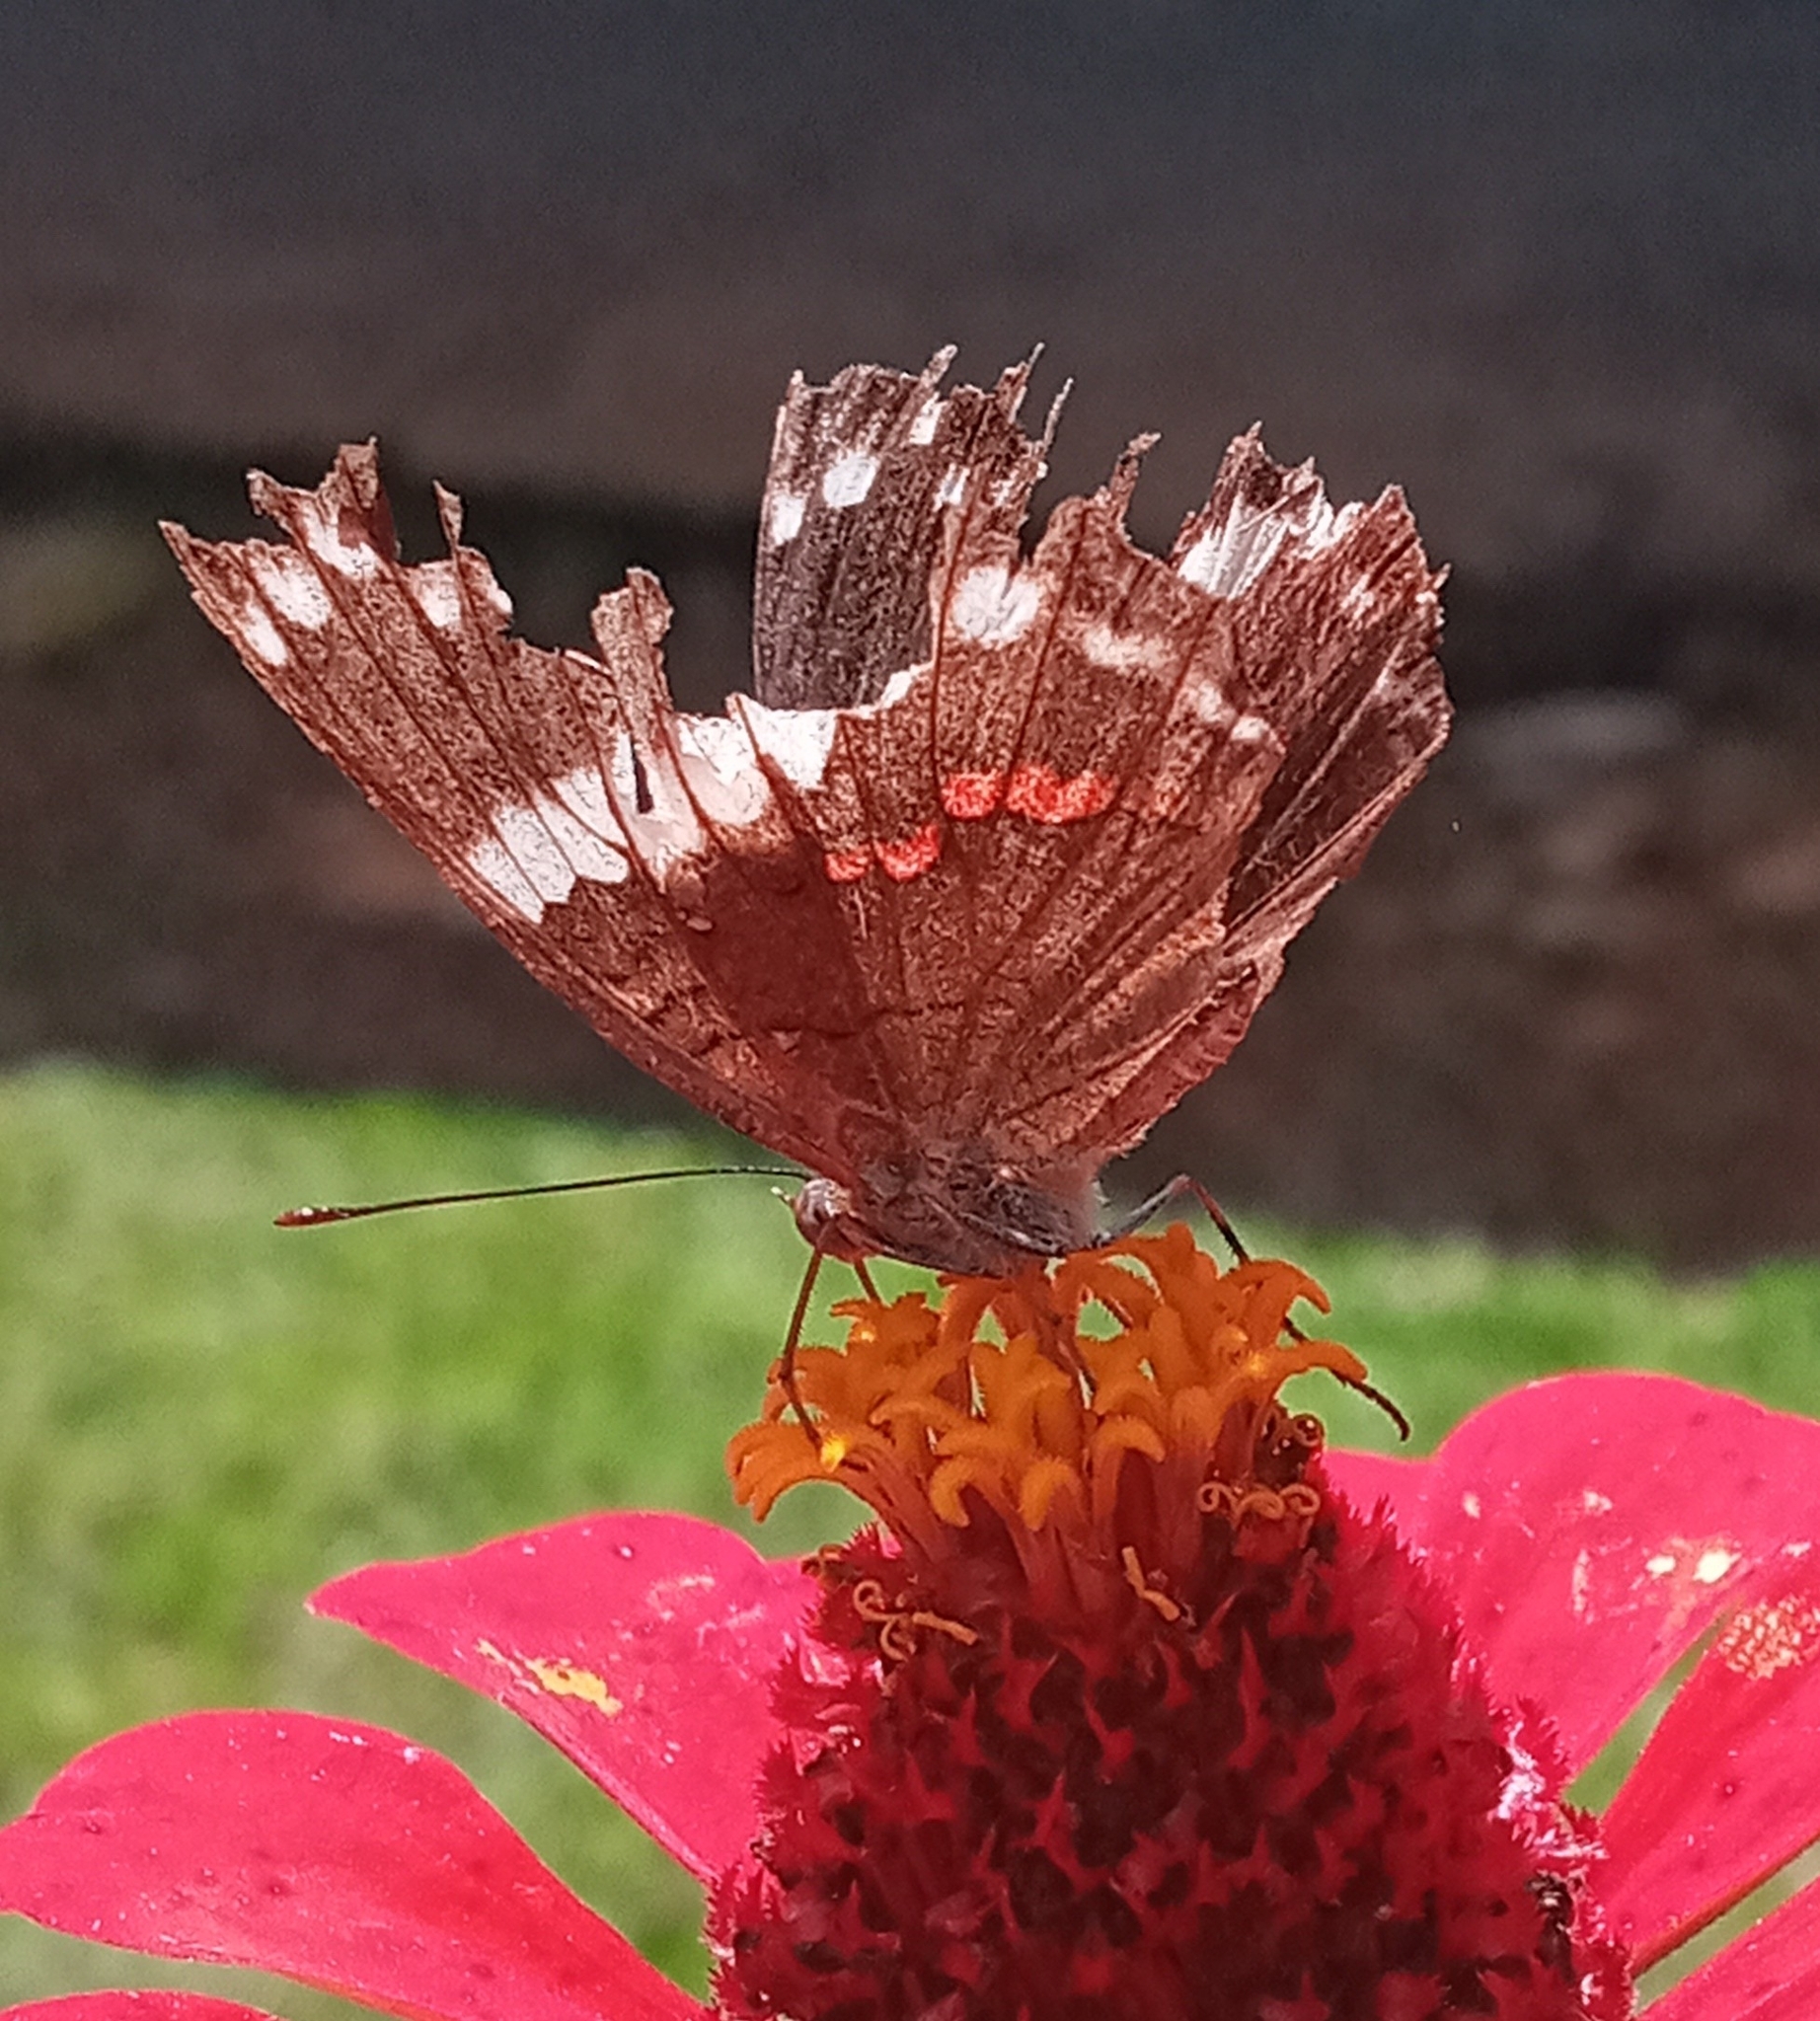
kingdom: Animalia
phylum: Arthropoda
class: Insecta
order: Lepidoptera
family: Nymphalidae
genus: Anartia
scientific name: Anartia fatima
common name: Banded peacock
